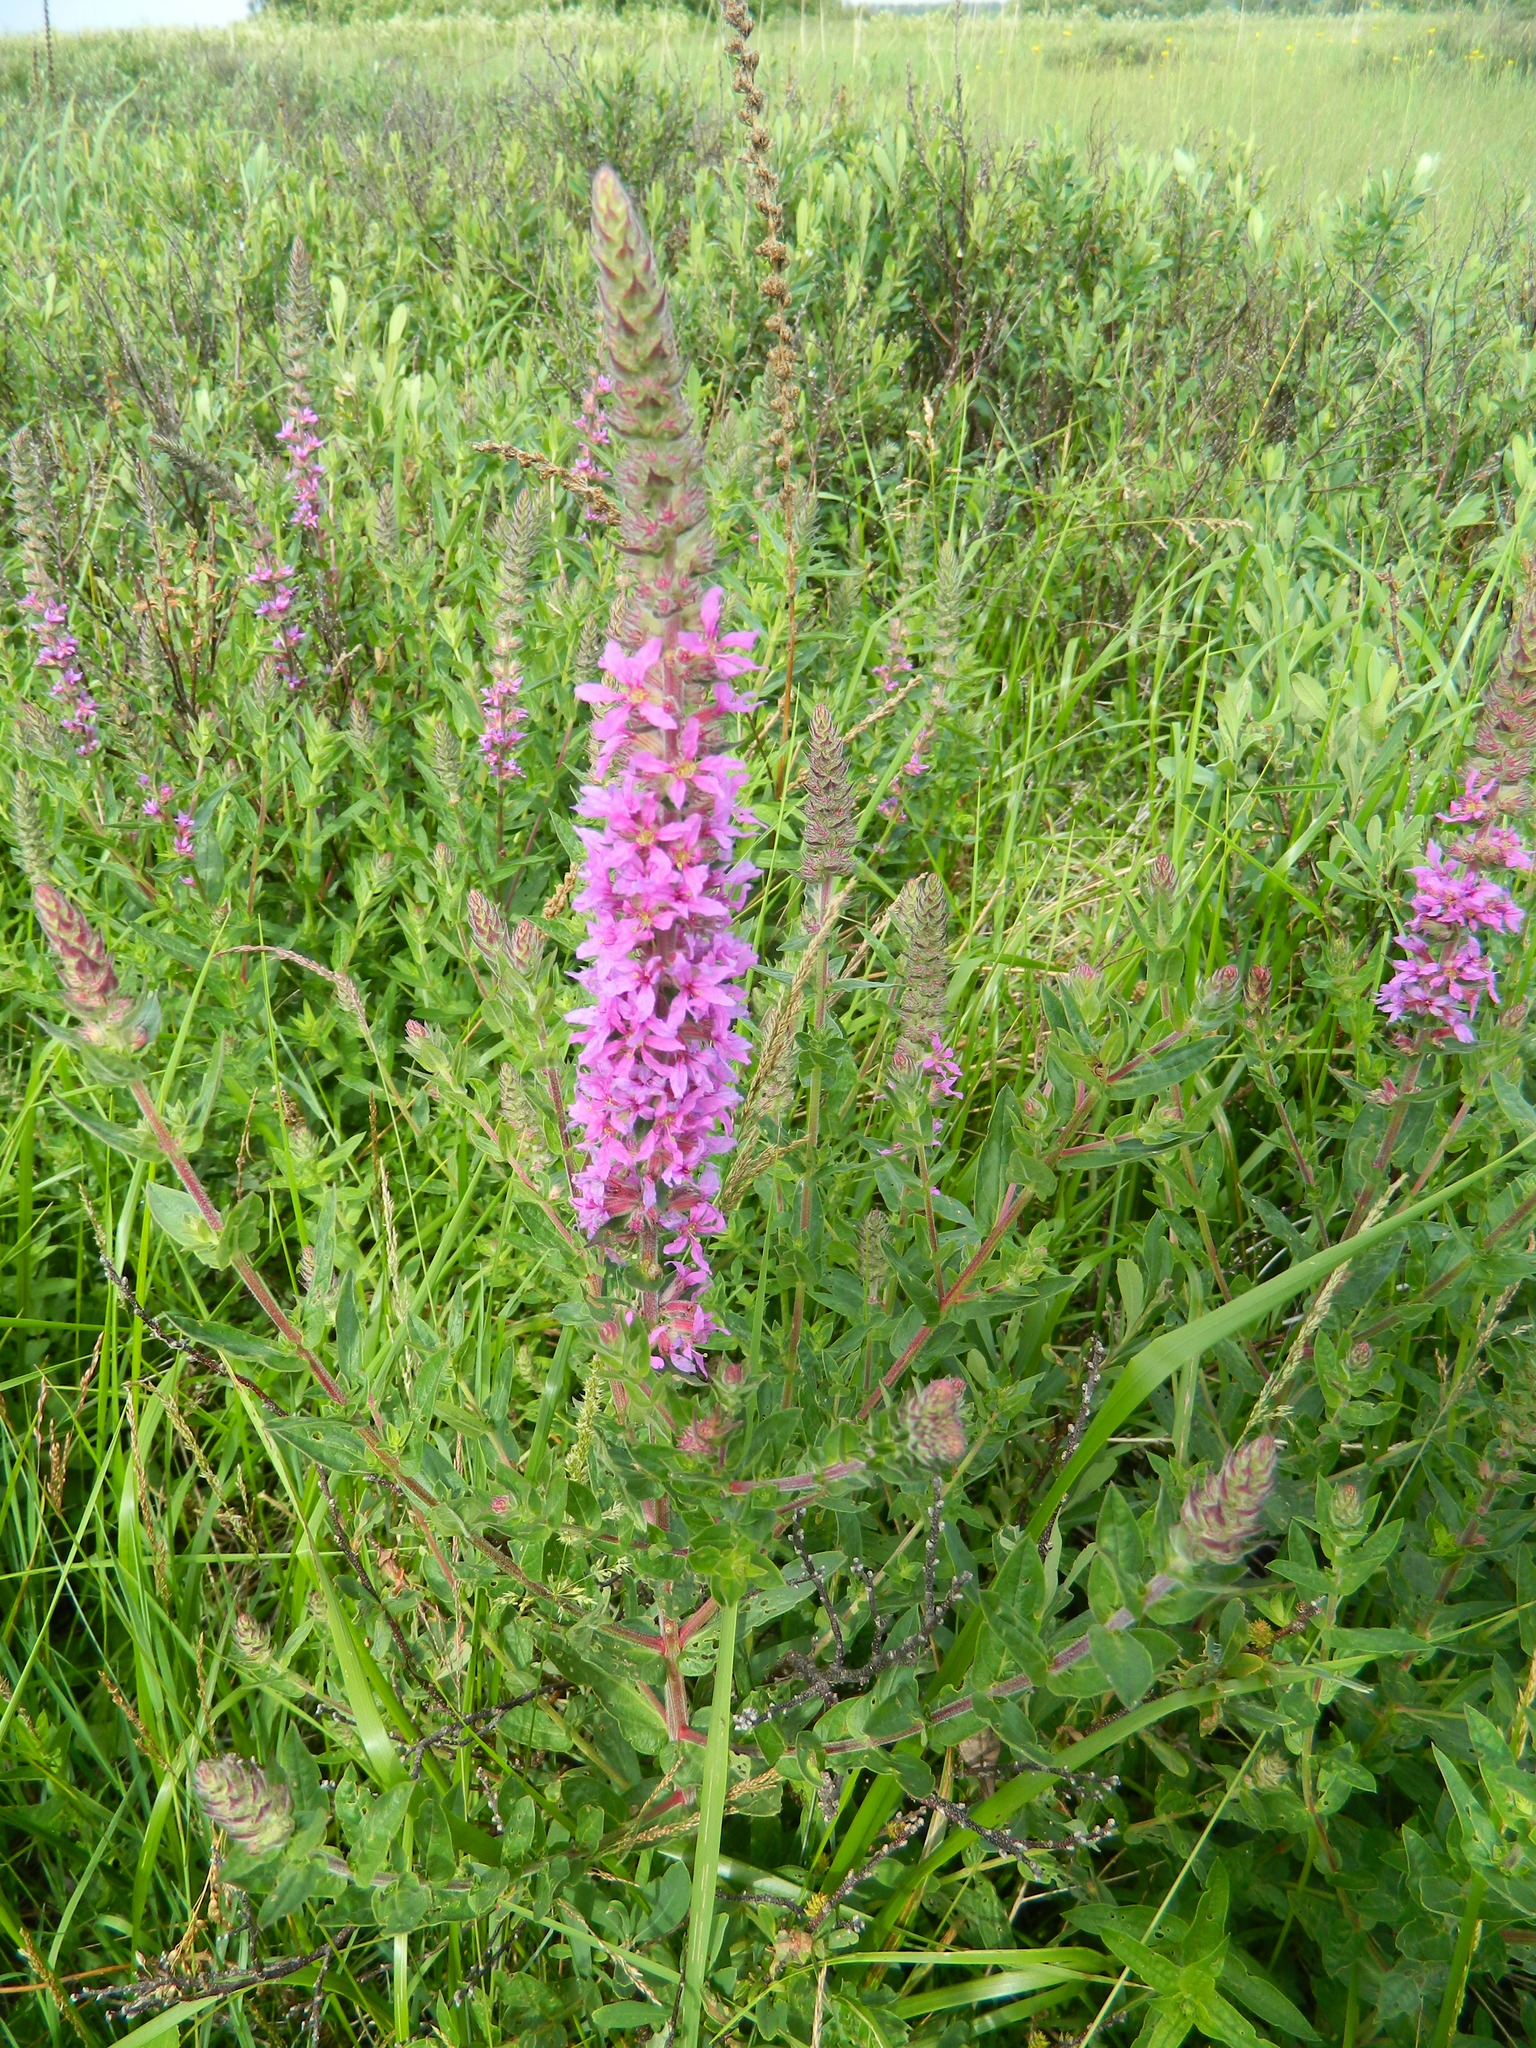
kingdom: Plantae
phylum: Tracheophyta
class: Magnoliopsida
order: Myrtales
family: Lythraceae
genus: Lythrum
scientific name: Lythrum salicaria
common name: Purple loosestrife
